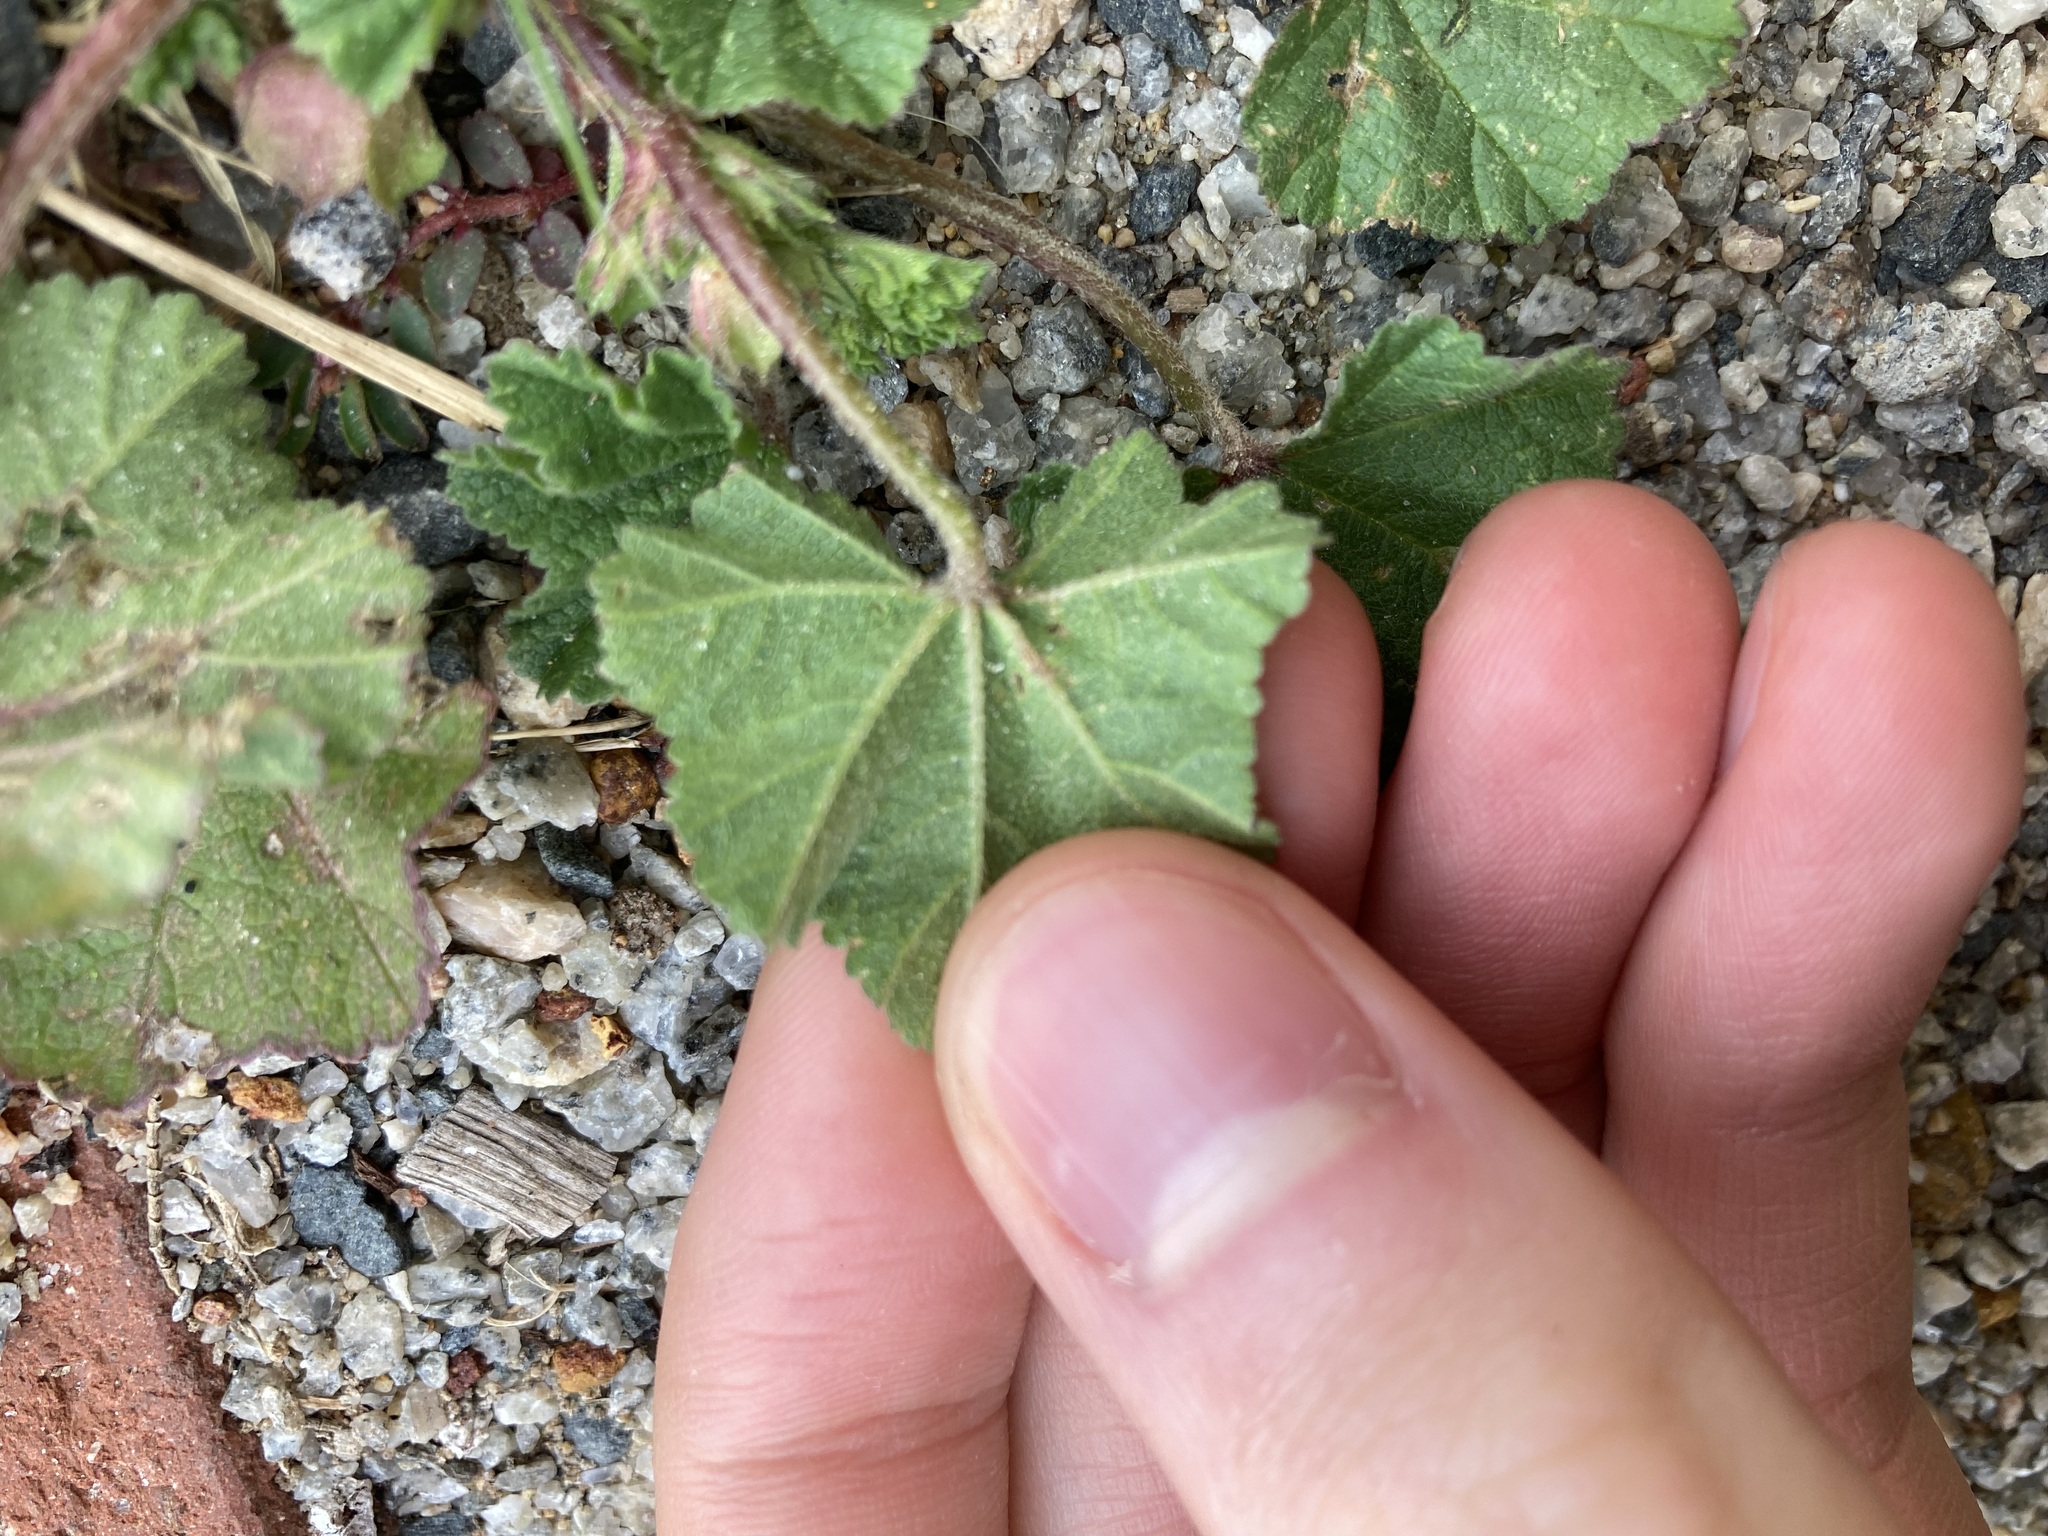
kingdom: Plantae
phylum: Tracheophyta
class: Magnoliopsida
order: Malvales
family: Malvaceae
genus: Malva
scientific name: Malva parviflora
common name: Least mallow
